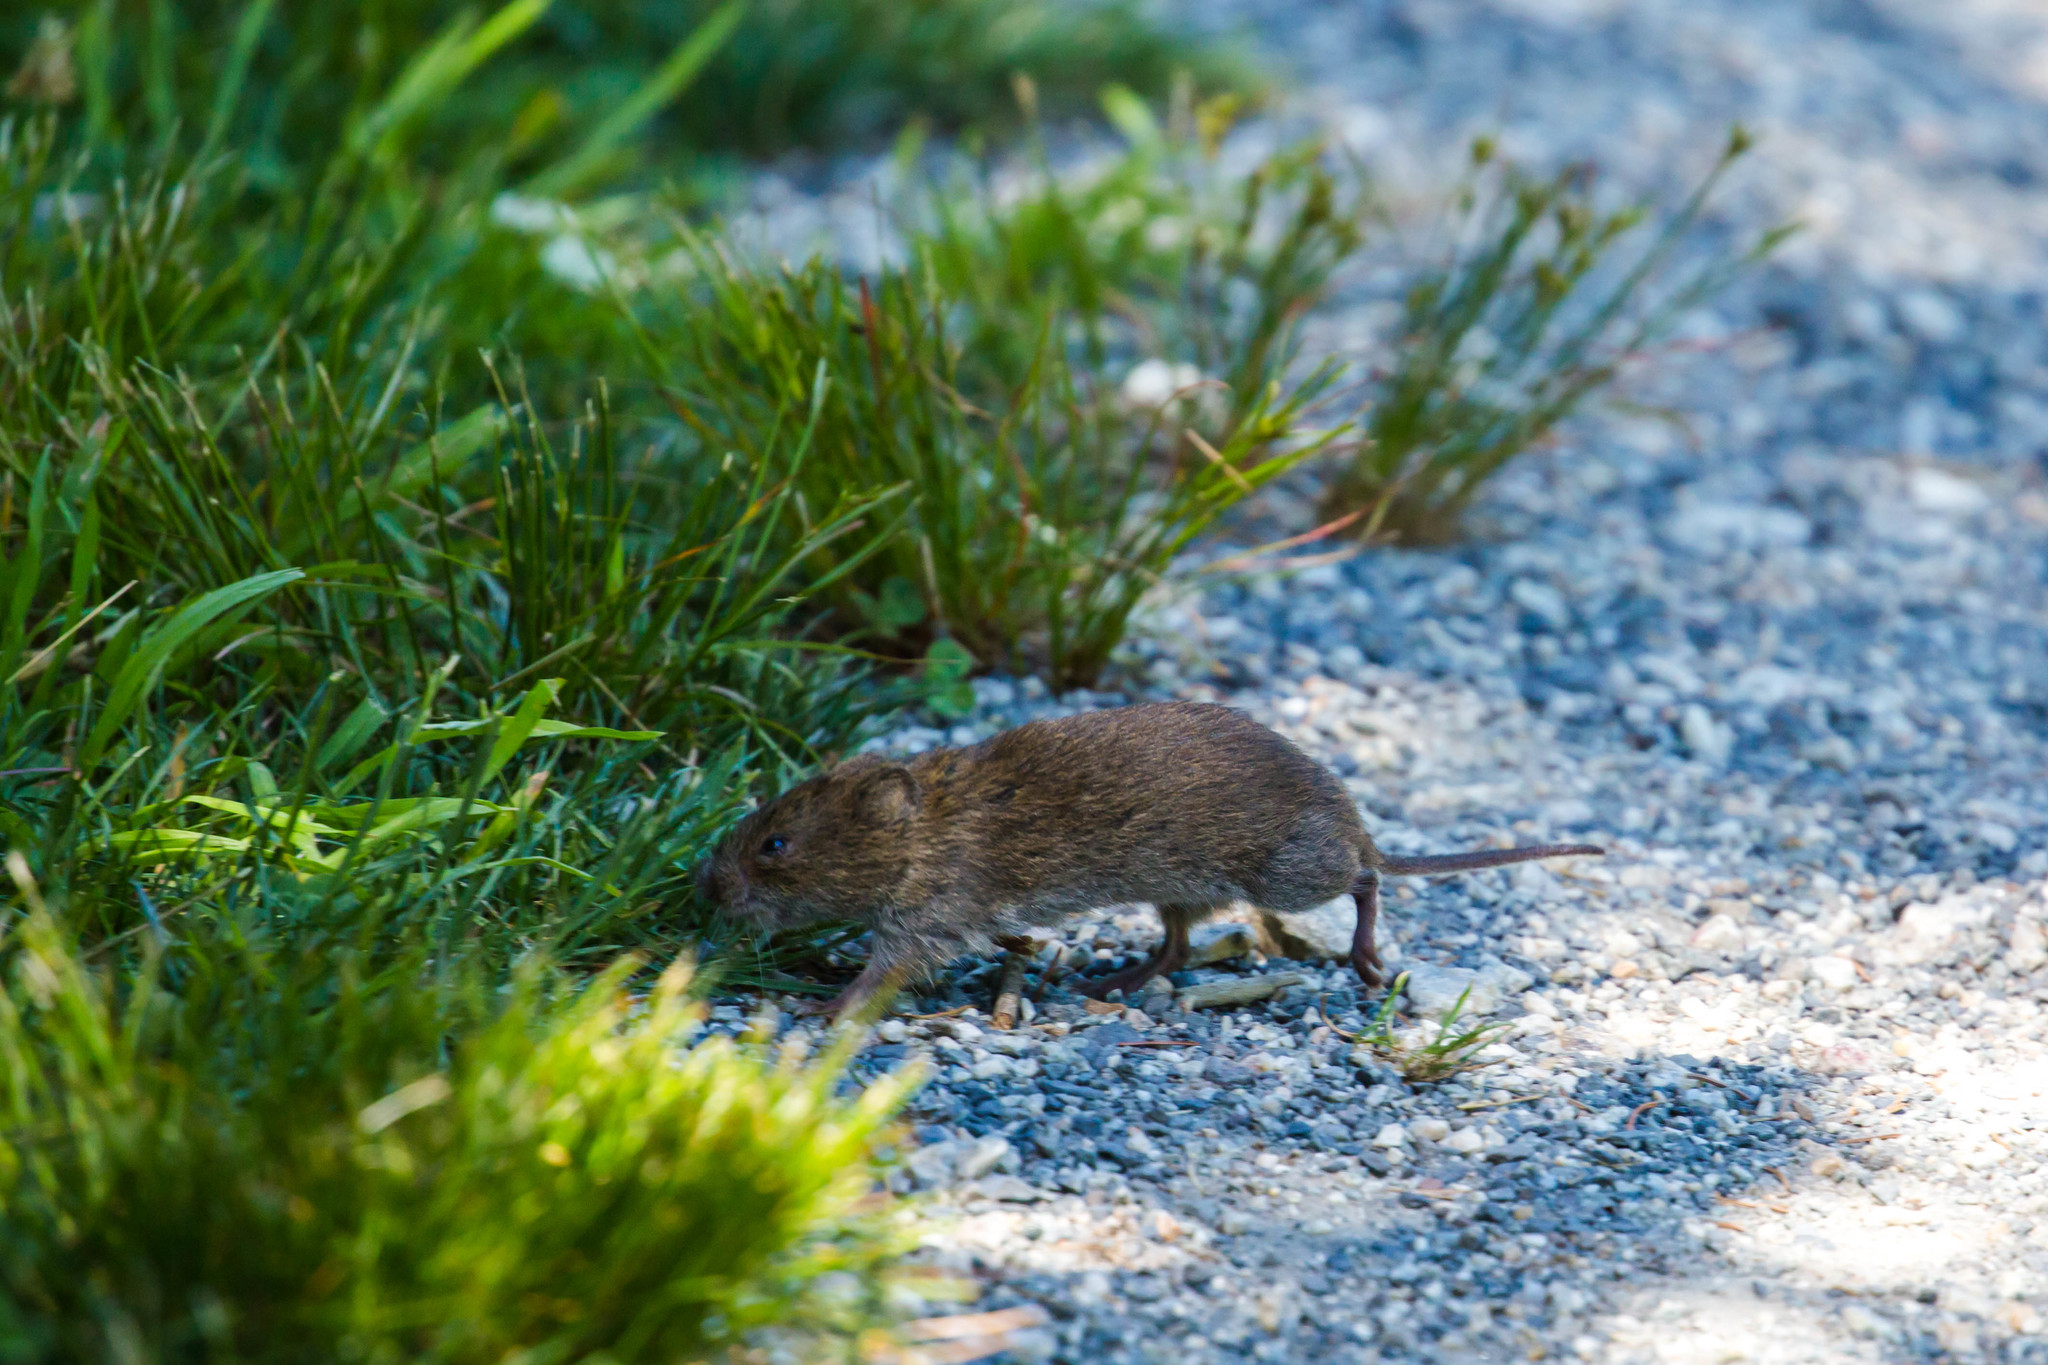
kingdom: Animalia
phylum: Chordata
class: Mammalia
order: Rodentia
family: Cricetidae
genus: Microtus
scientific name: Microtus pennsylvanicus
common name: Meadow vole
